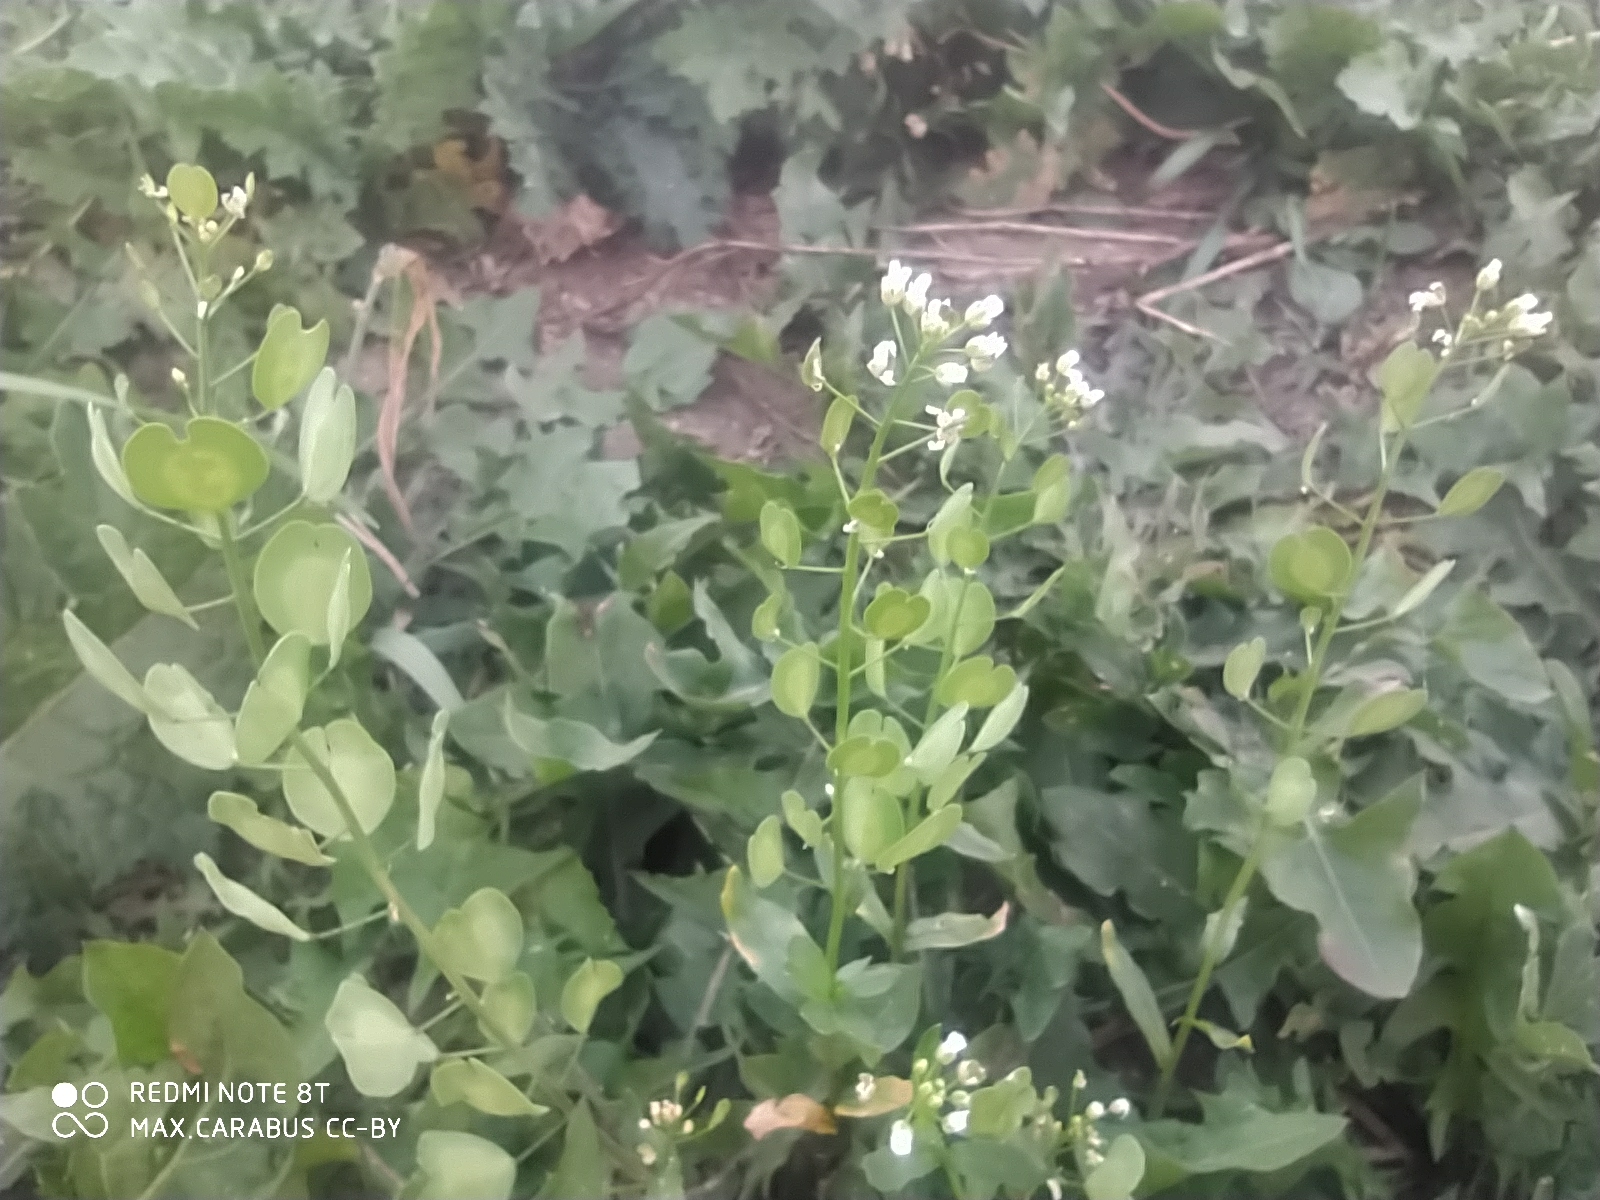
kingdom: Plantae
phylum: Tracheophyta
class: Magnoliopsida
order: Brassicales
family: Brassicaceae
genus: Thlaspi
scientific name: Thlaspi arvense
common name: Field pennycress
